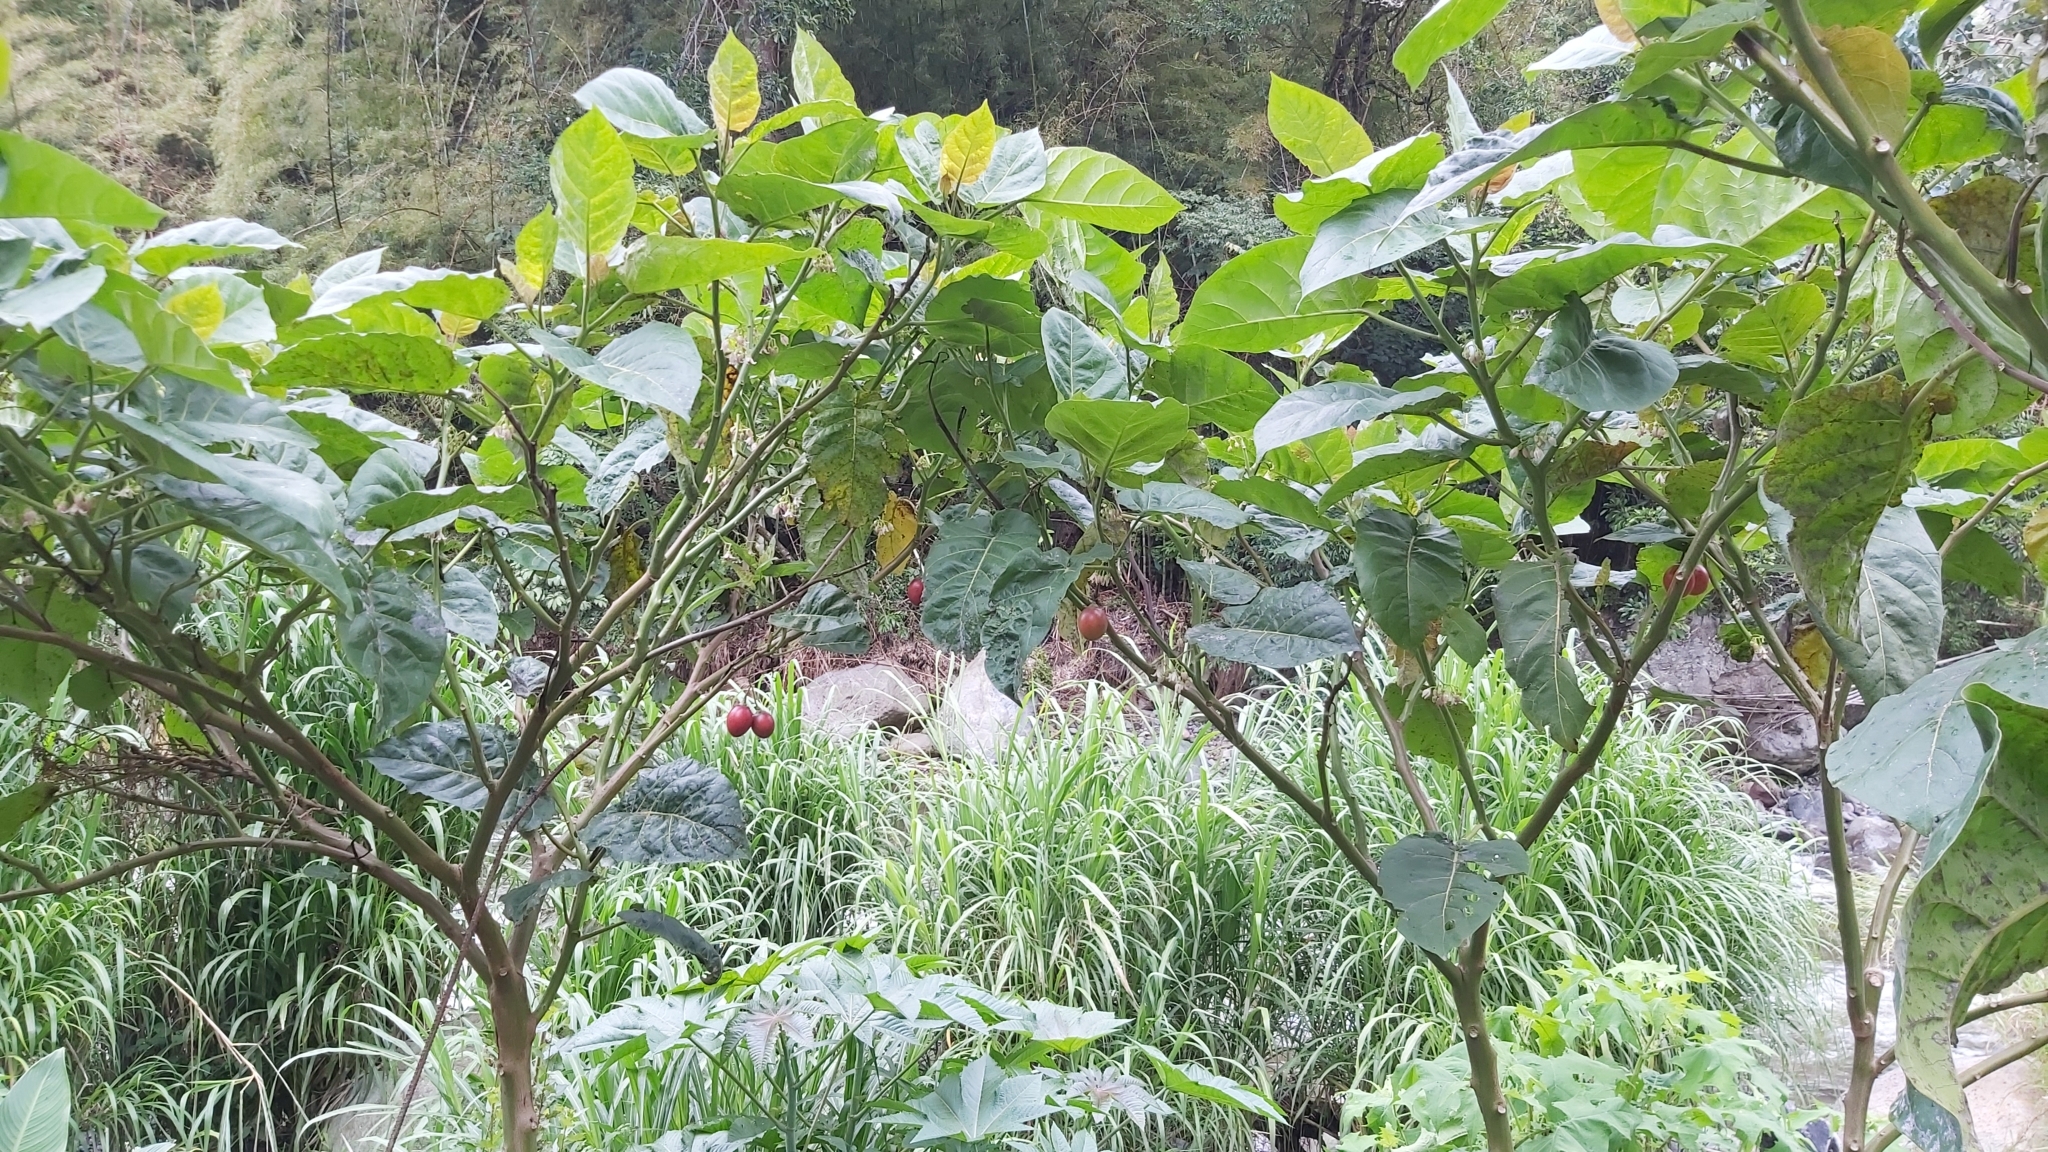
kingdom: Plantae
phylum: Tracheophyta
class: Magnoliopsida
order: Solanales
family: Solanaceae
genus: Solanum
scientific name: Solanum betaceum
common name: Tamarillo
